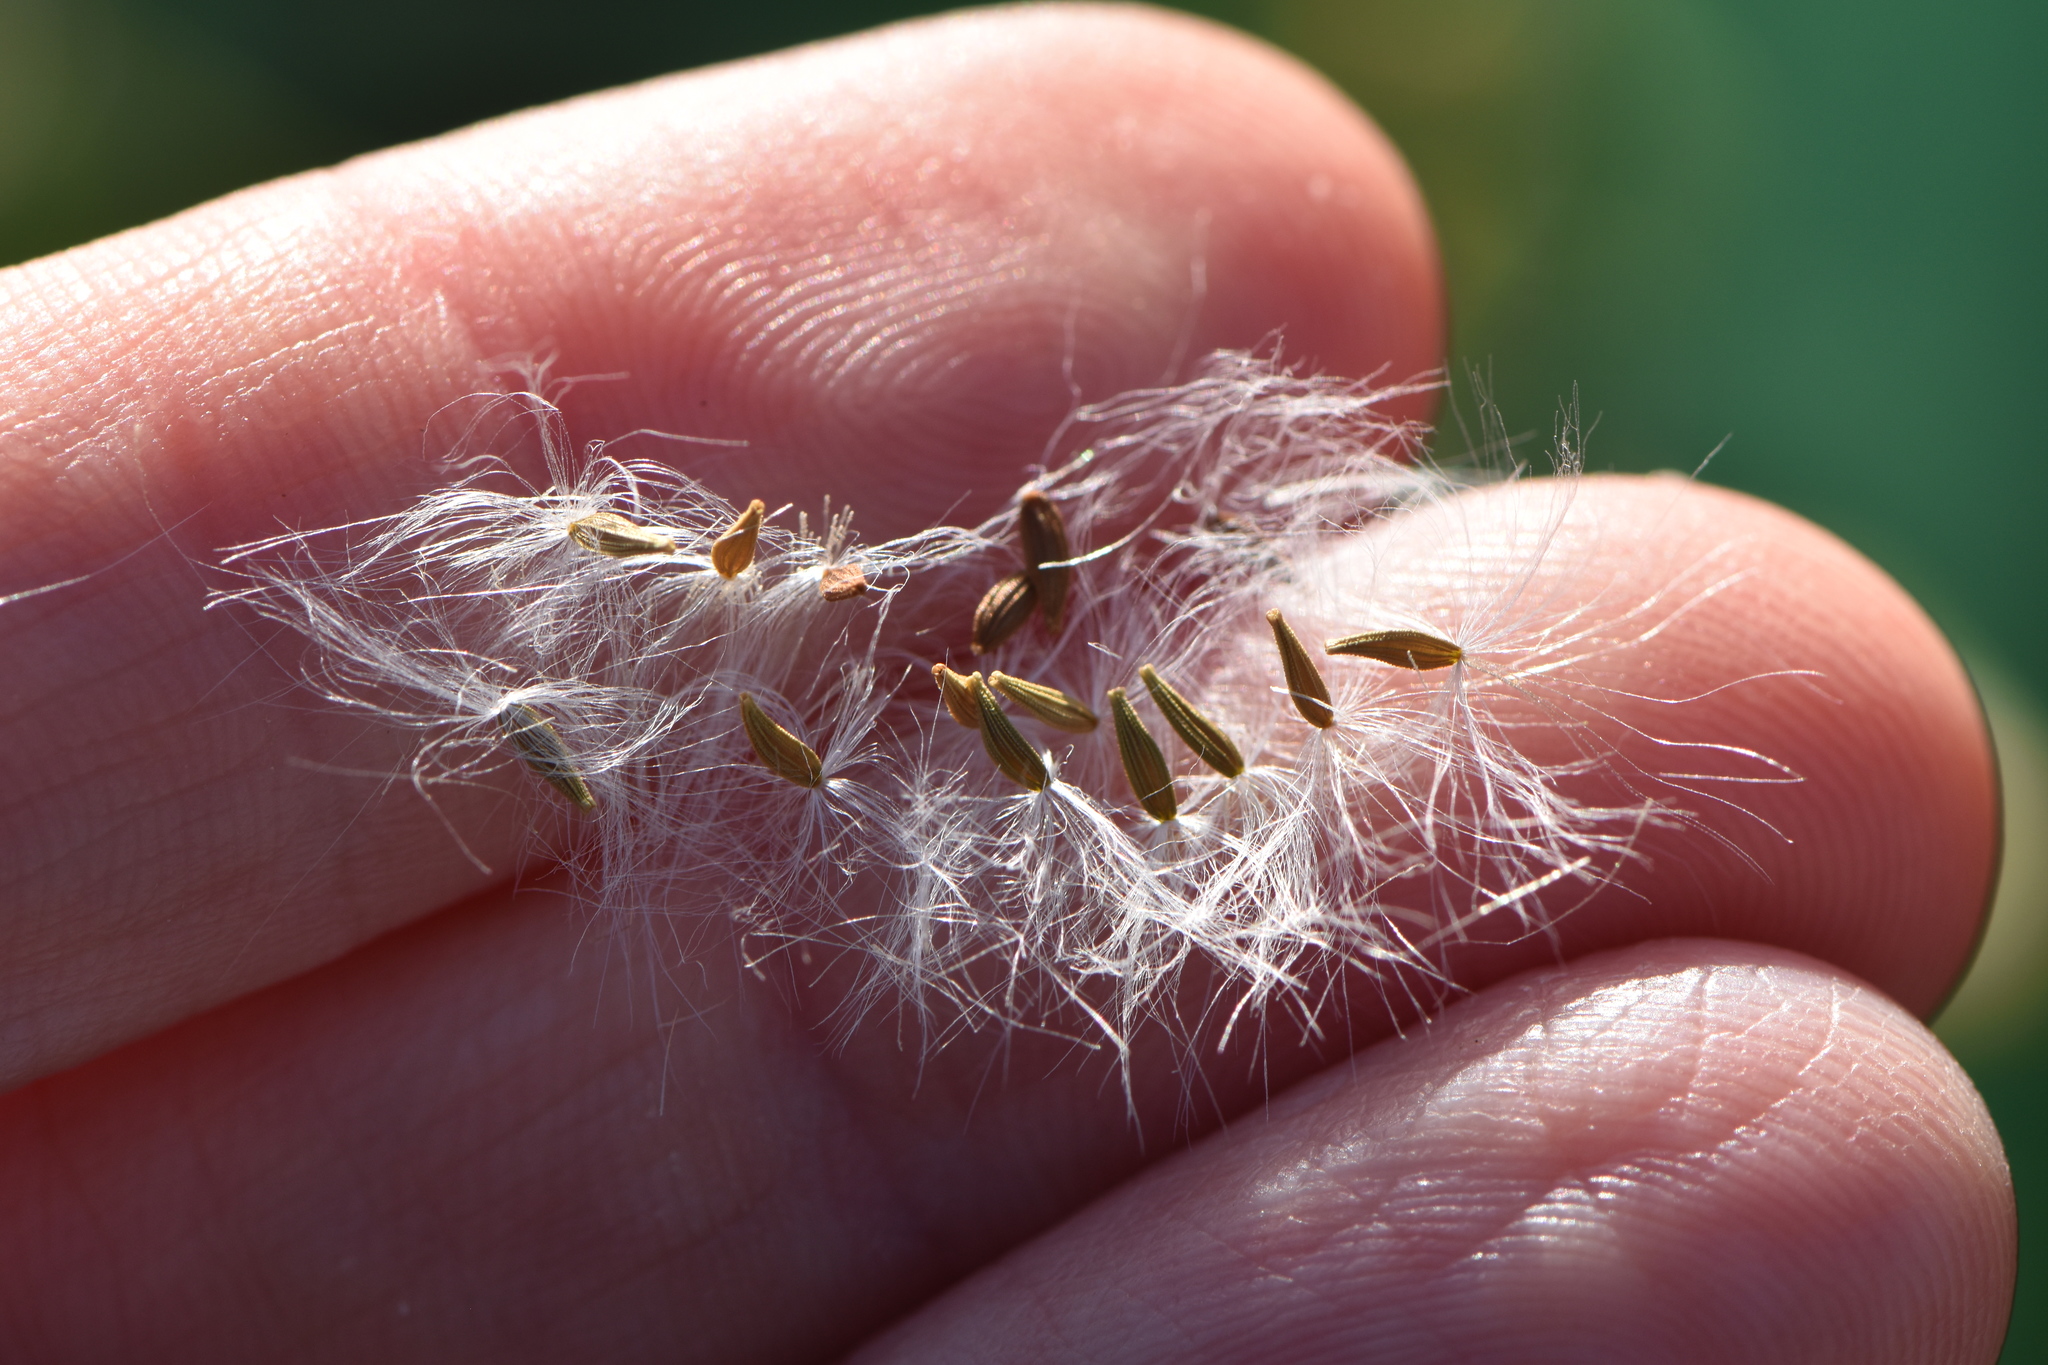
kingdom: Plantae
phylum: Tracheophyta
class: Magnoliopsida
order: Asterales
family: Asteraceae
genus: Sonchus
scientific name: Sonchus oleraceus
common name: Common sowthistle
